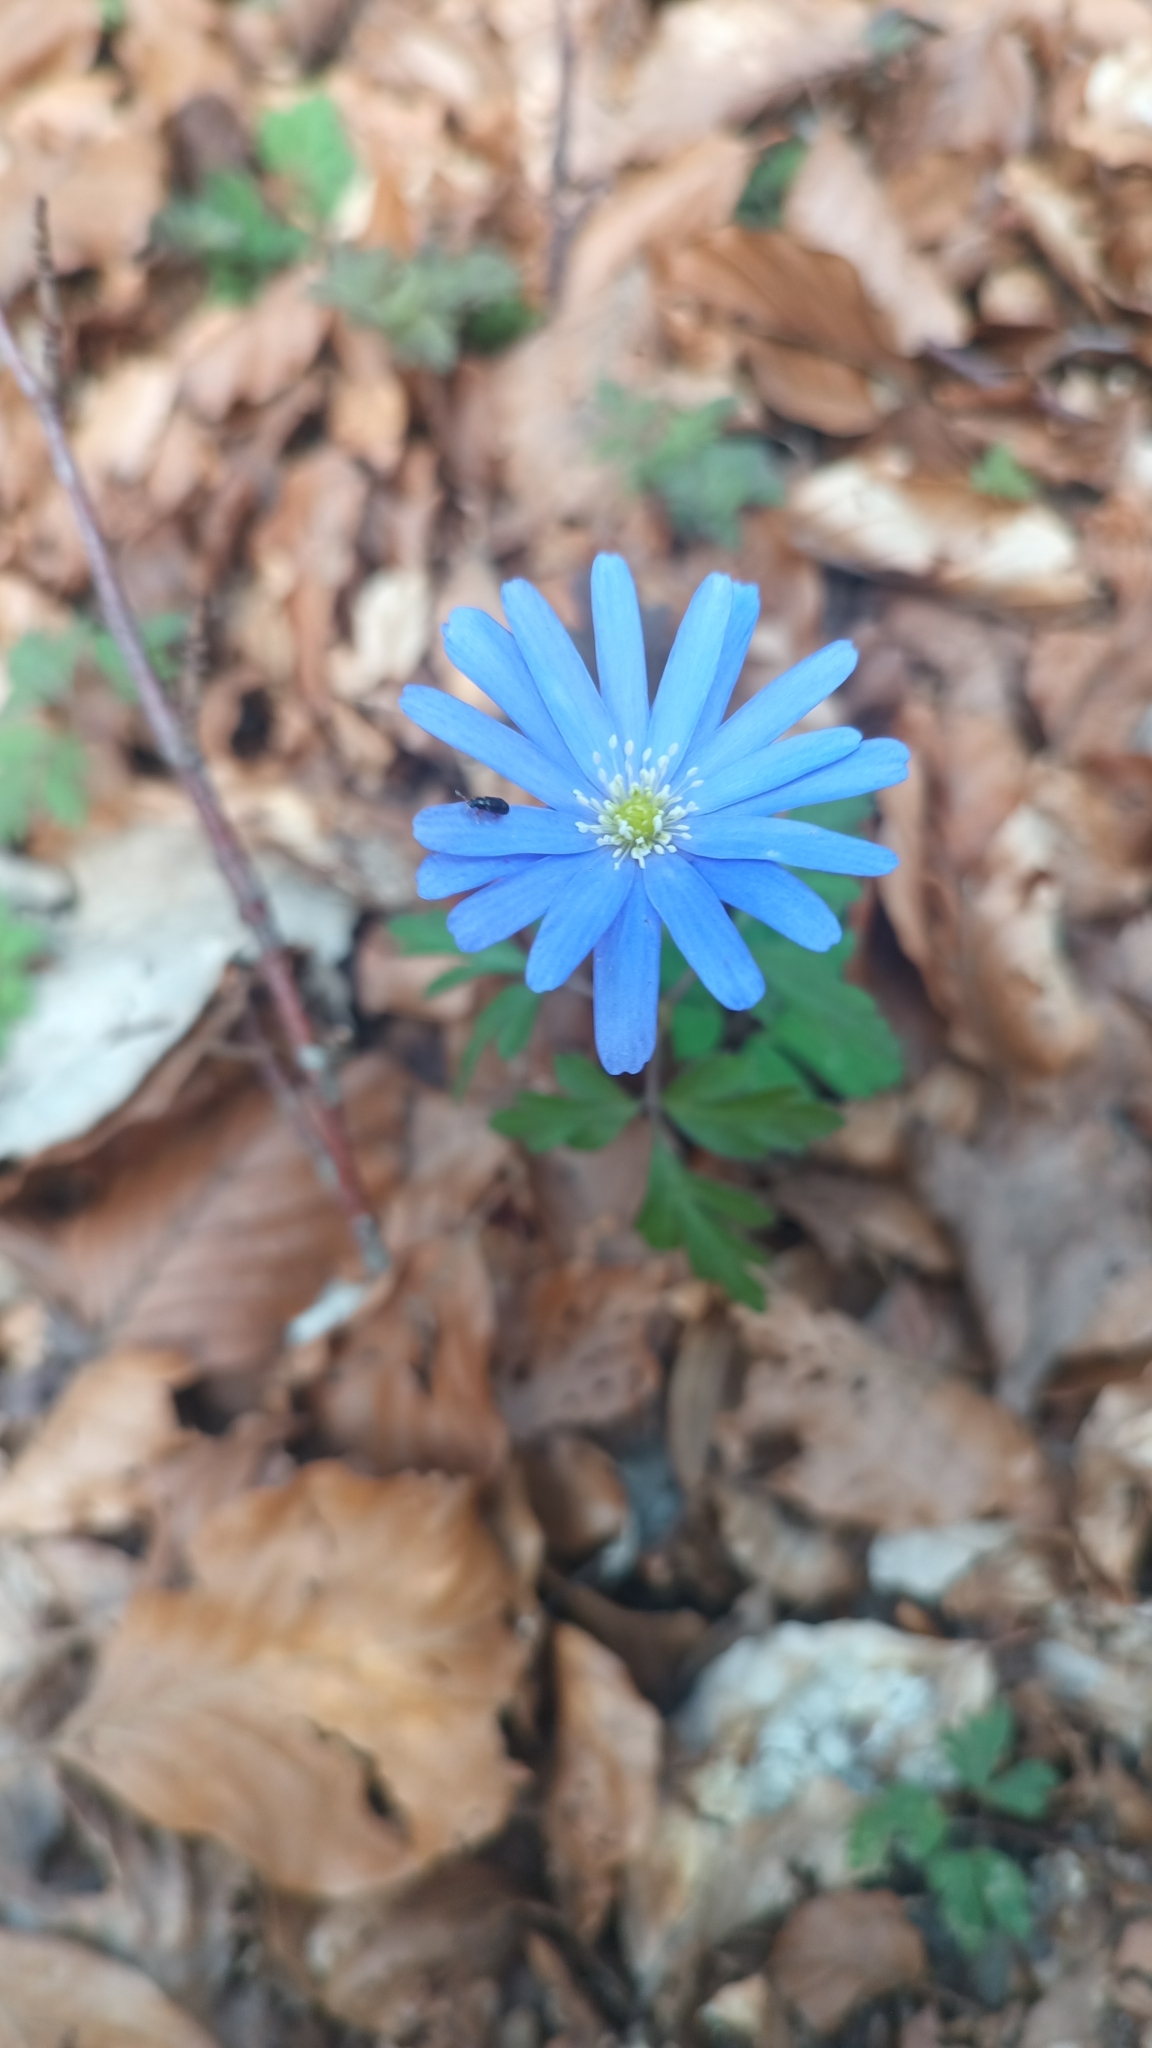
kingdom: Plantae
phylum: Tracheophyta
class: Magnoliopsida
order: Ranunculales
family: Ranunculaceae
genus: Anemone
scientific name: Anemone apennina
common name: Blue anemone
